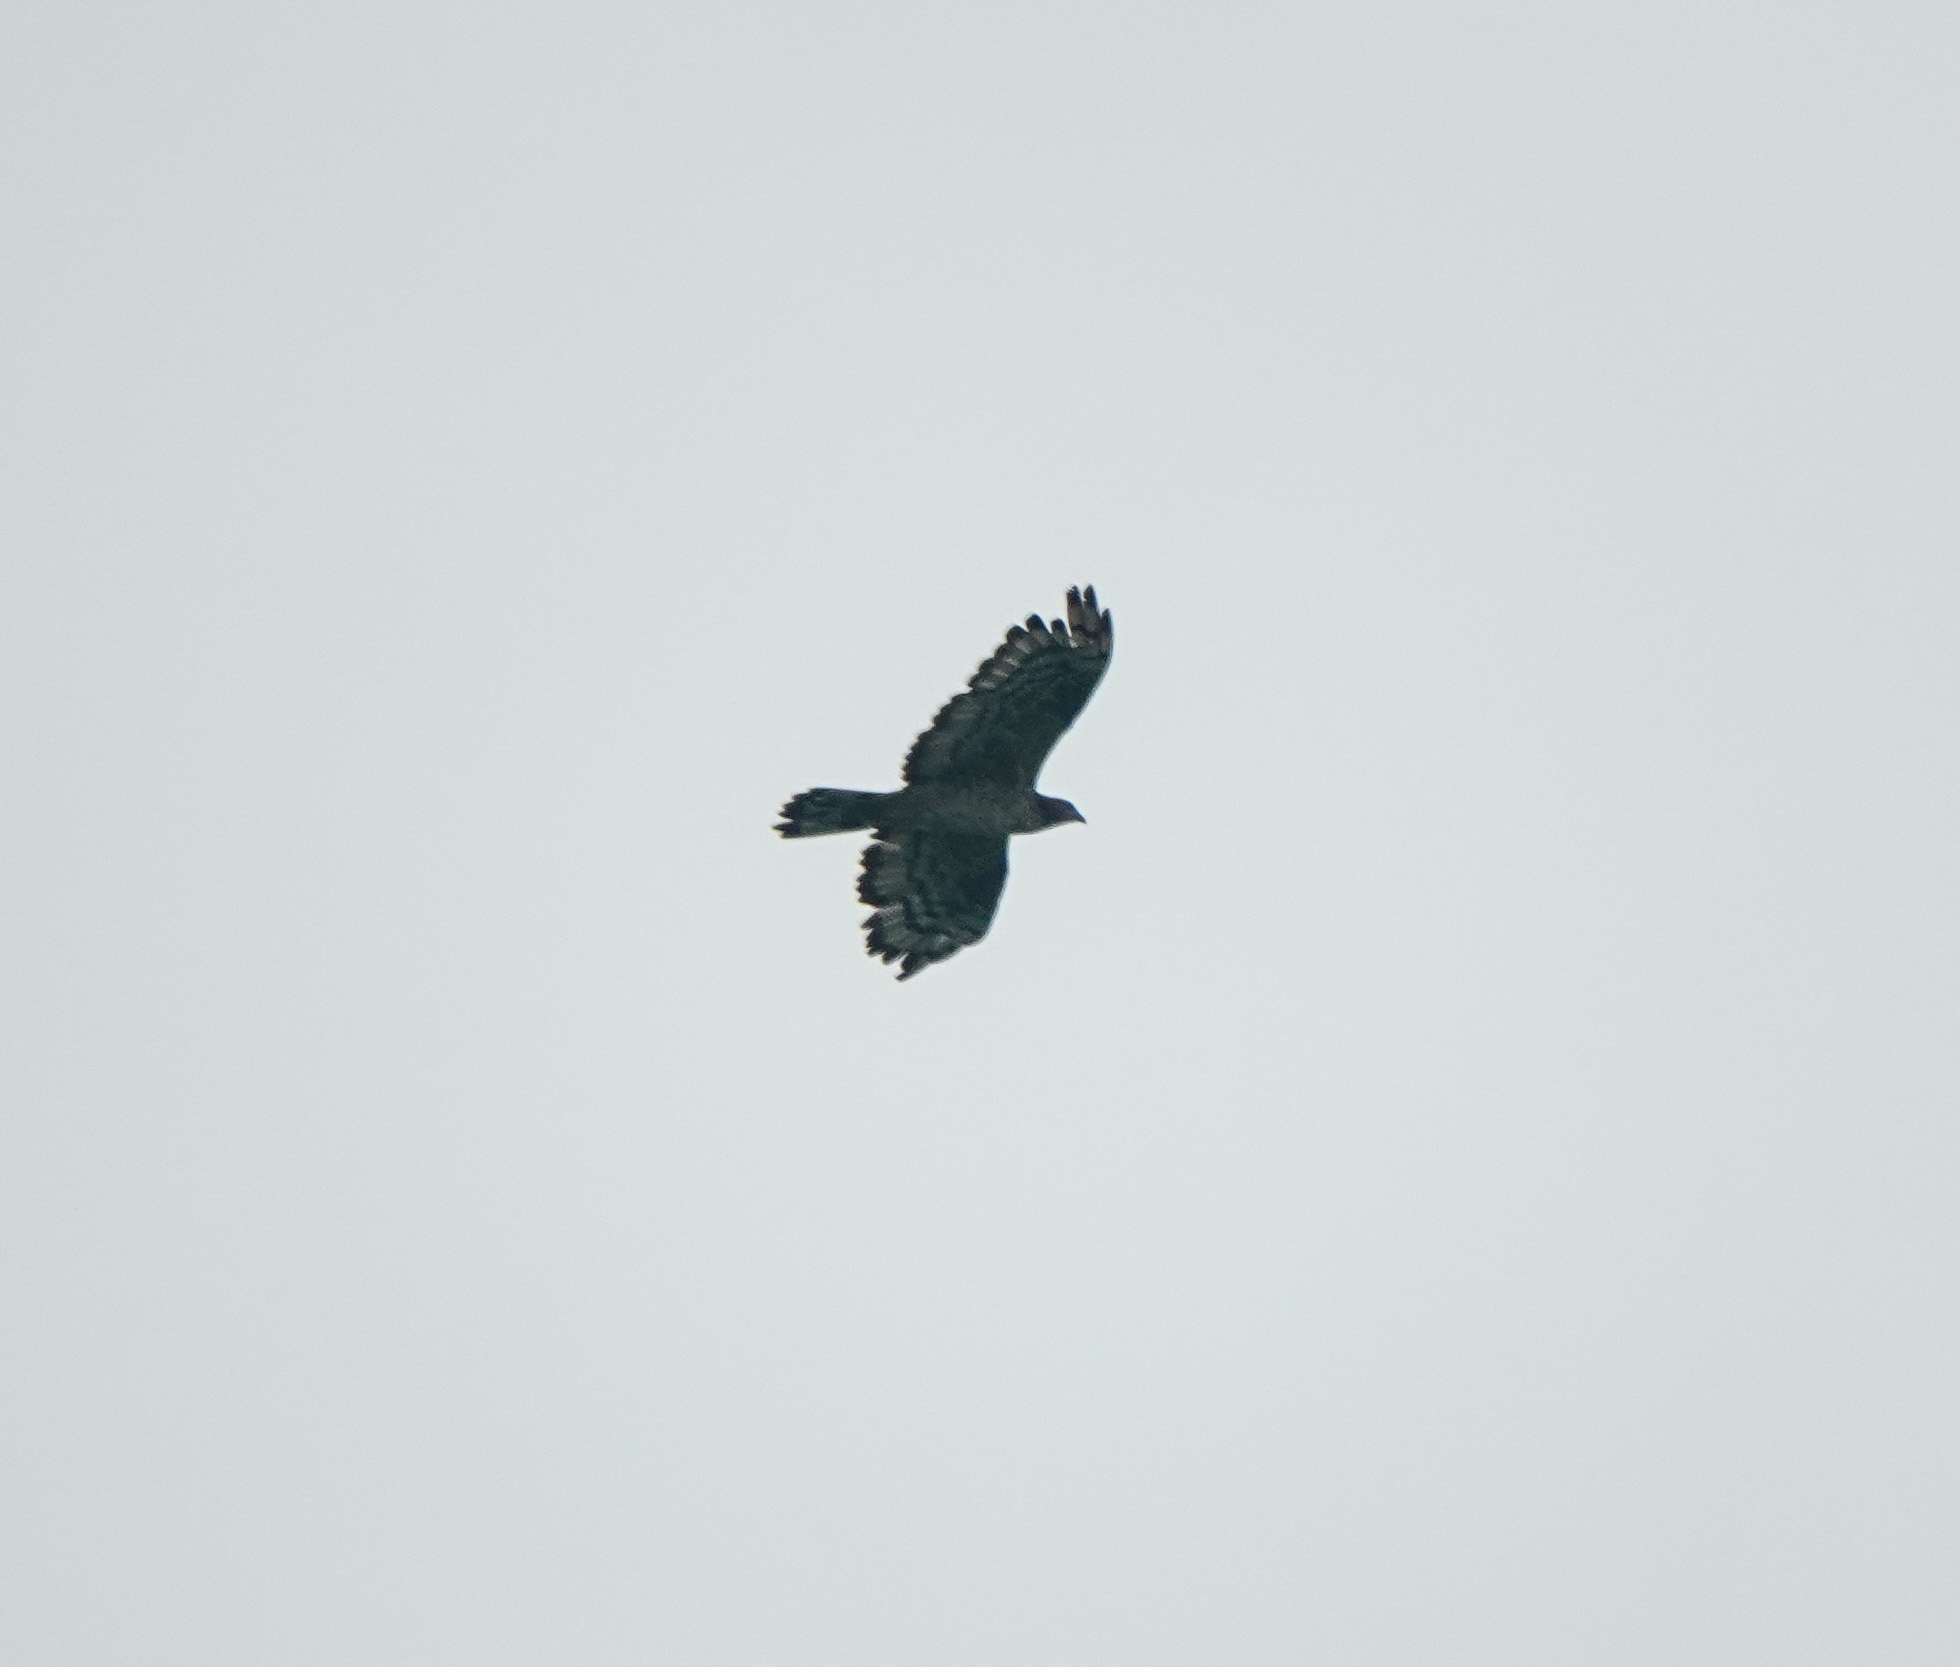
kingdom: Animalia
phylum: Chordata
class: Aves
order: Accipitriformes
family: Accipitridae
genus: Pernis
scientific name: Pernis ptilorhynchus
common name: Crested honey buzzard
